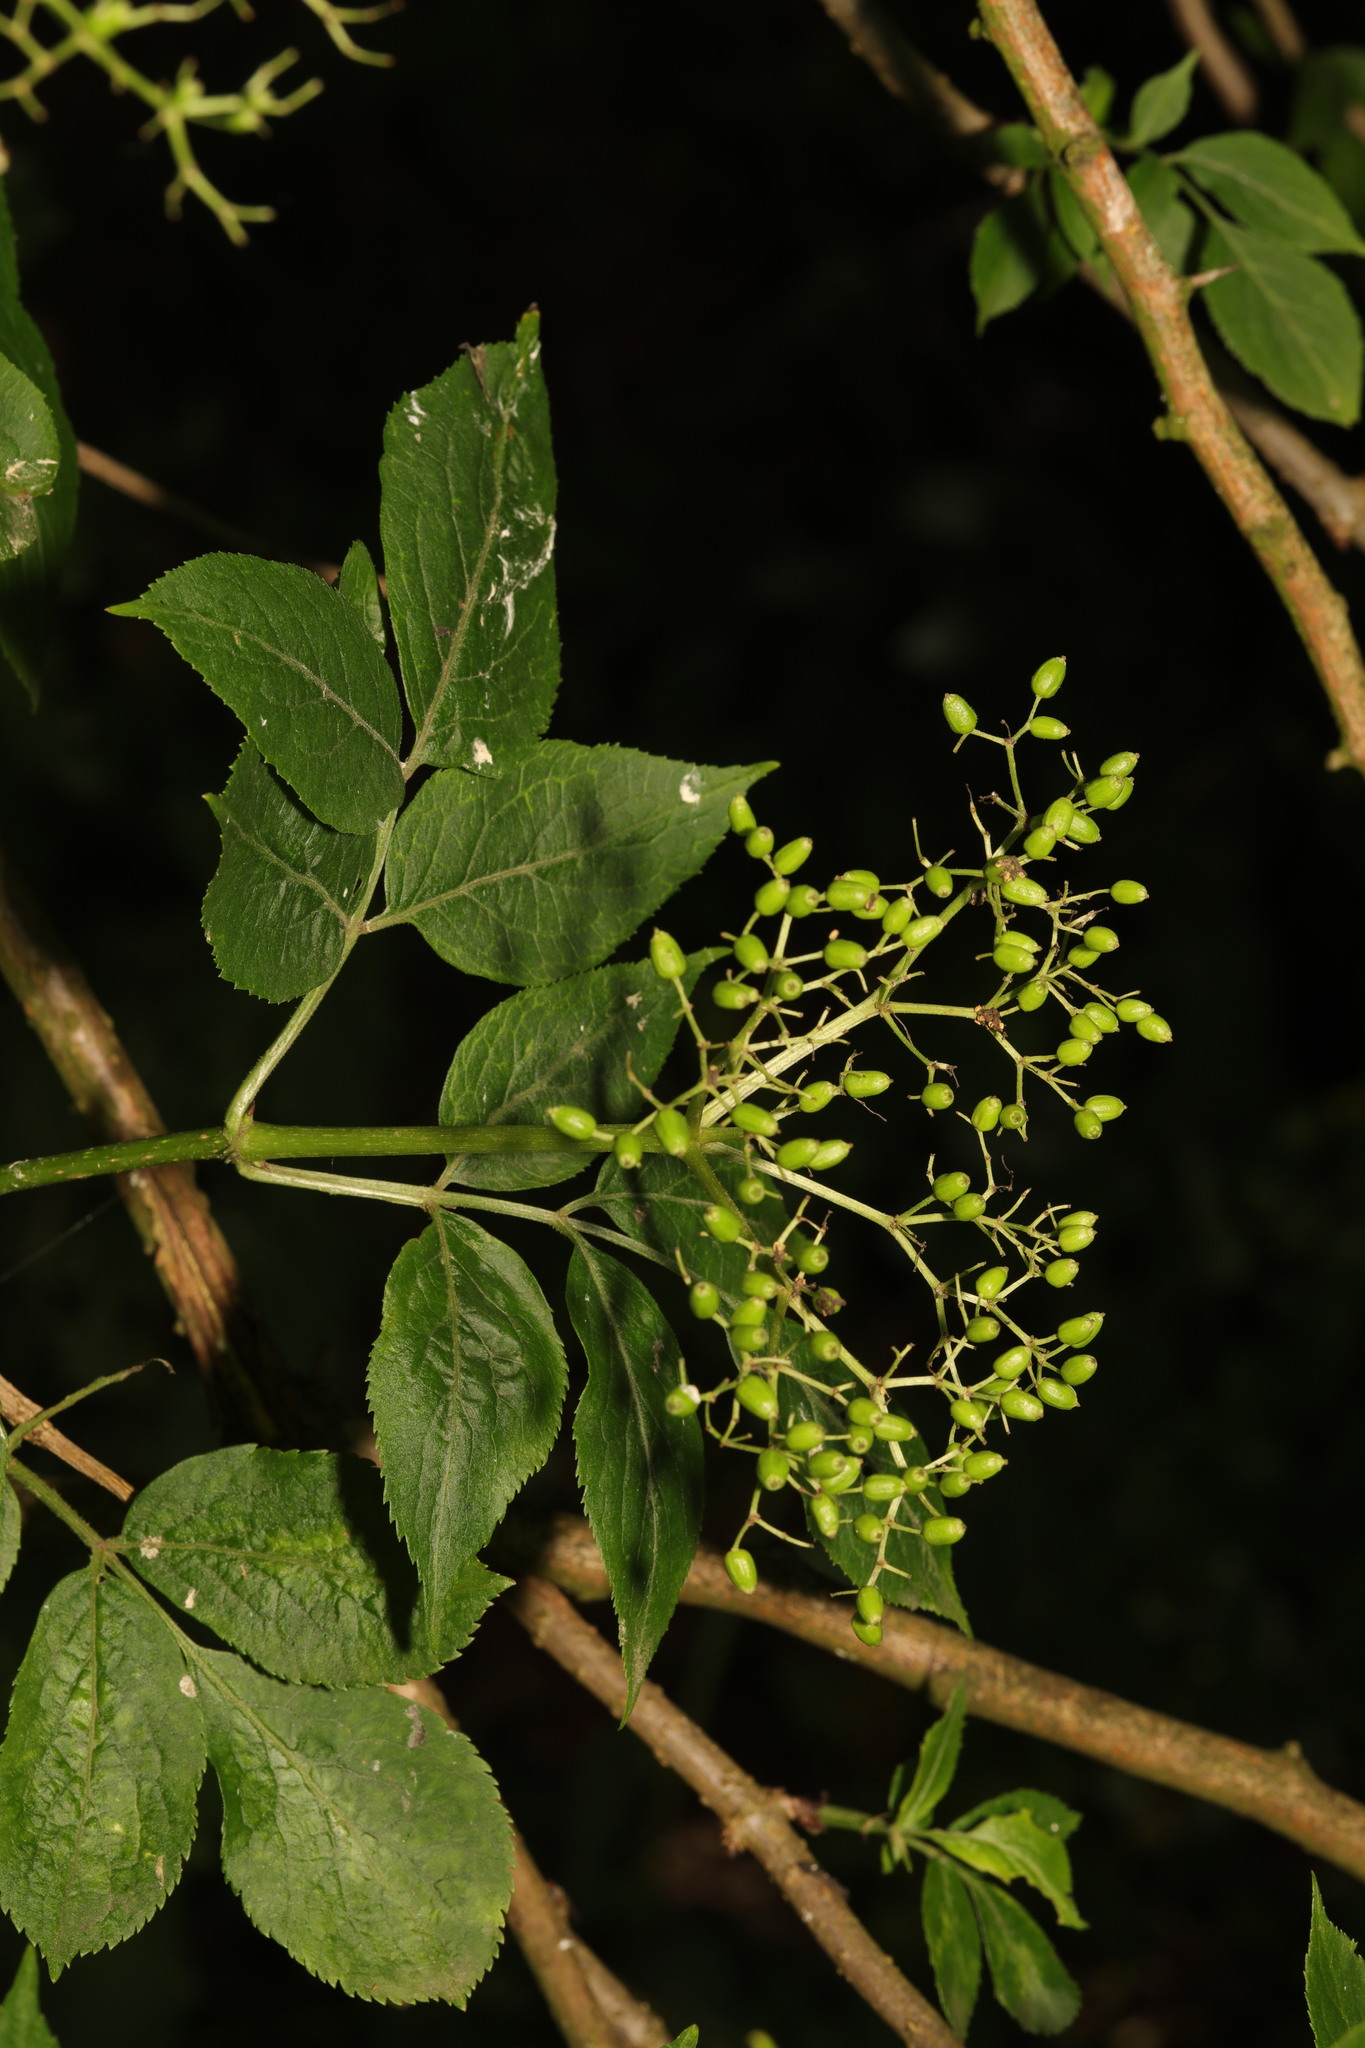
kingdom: Plantae
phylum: Tracheophyta
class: Magnoliopsida
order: Dipsacales
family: Viburnaceae
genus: Sambucus
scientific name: Sambucus nigra
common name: Elder
